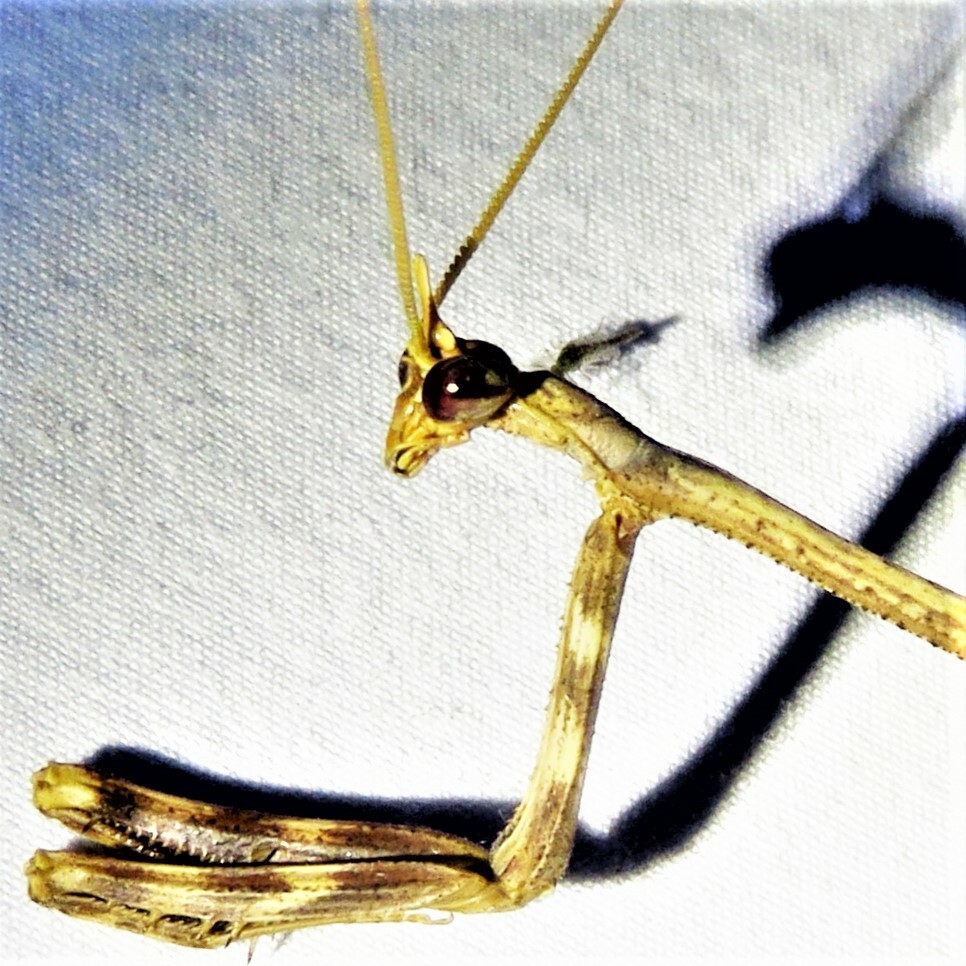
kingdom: Animalia
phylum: Arthropoda
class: Insecta
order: Mantodea
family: Mantidae
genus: Pseudovates
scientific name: Pseudovates chlorophaea
